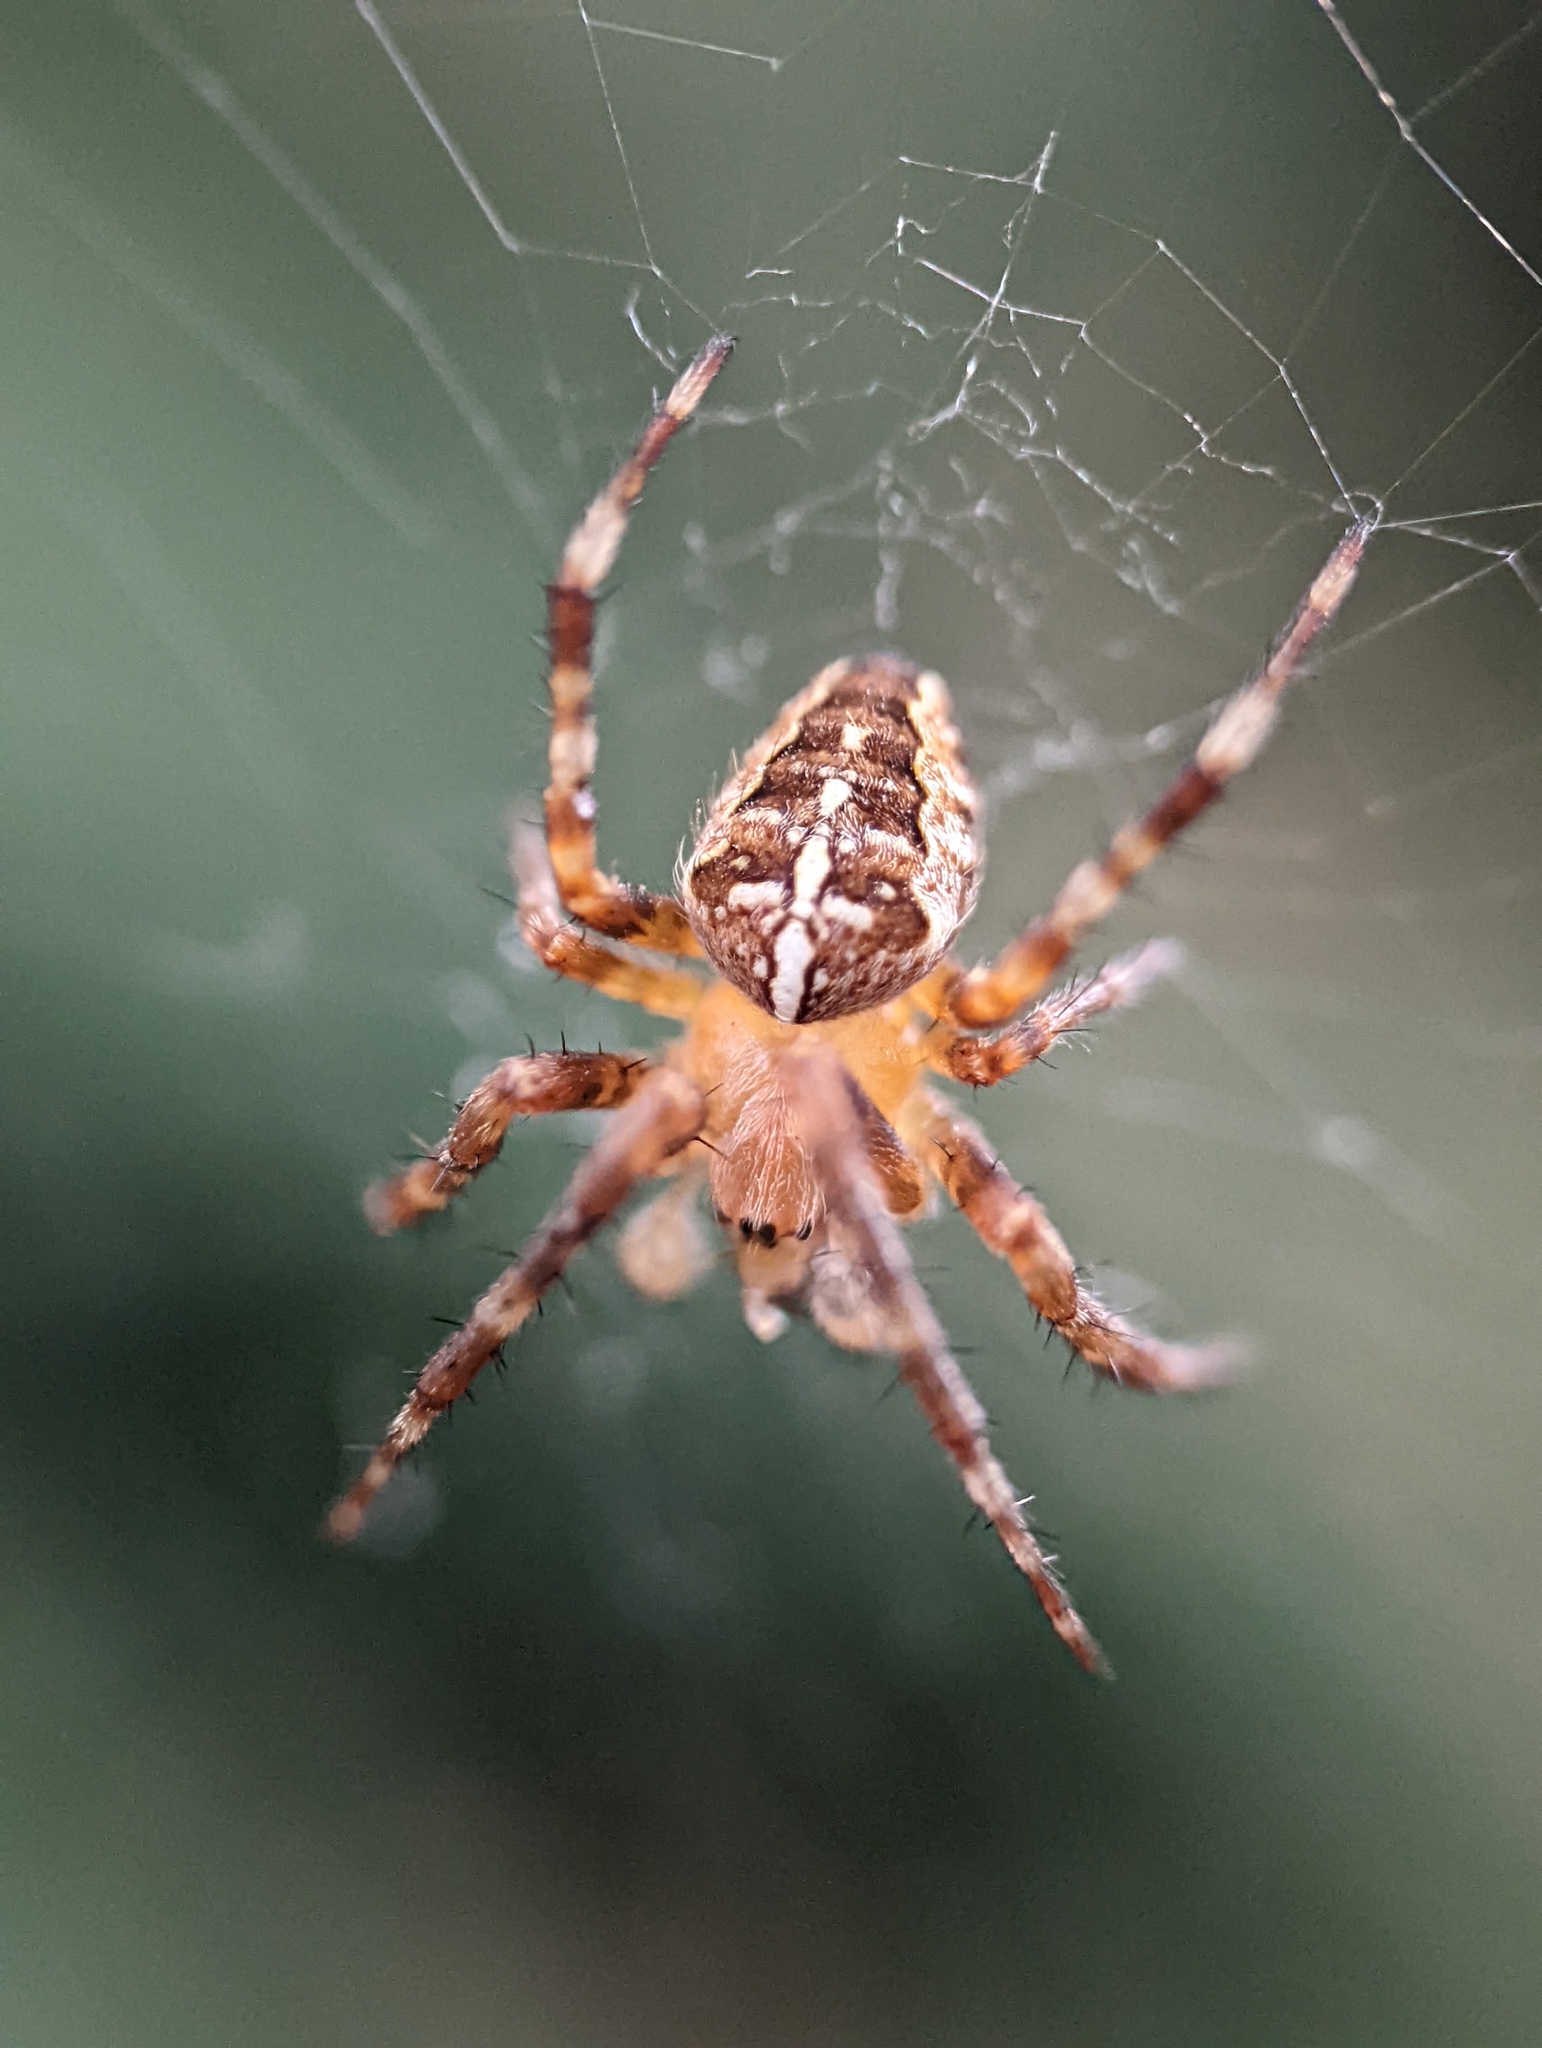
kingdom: Animalia
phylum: Arthropoda
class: Arachnida
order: Araneae
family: Araneidae
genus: Araneus
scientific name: Araneus diadematus
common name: Cross orbweaver
